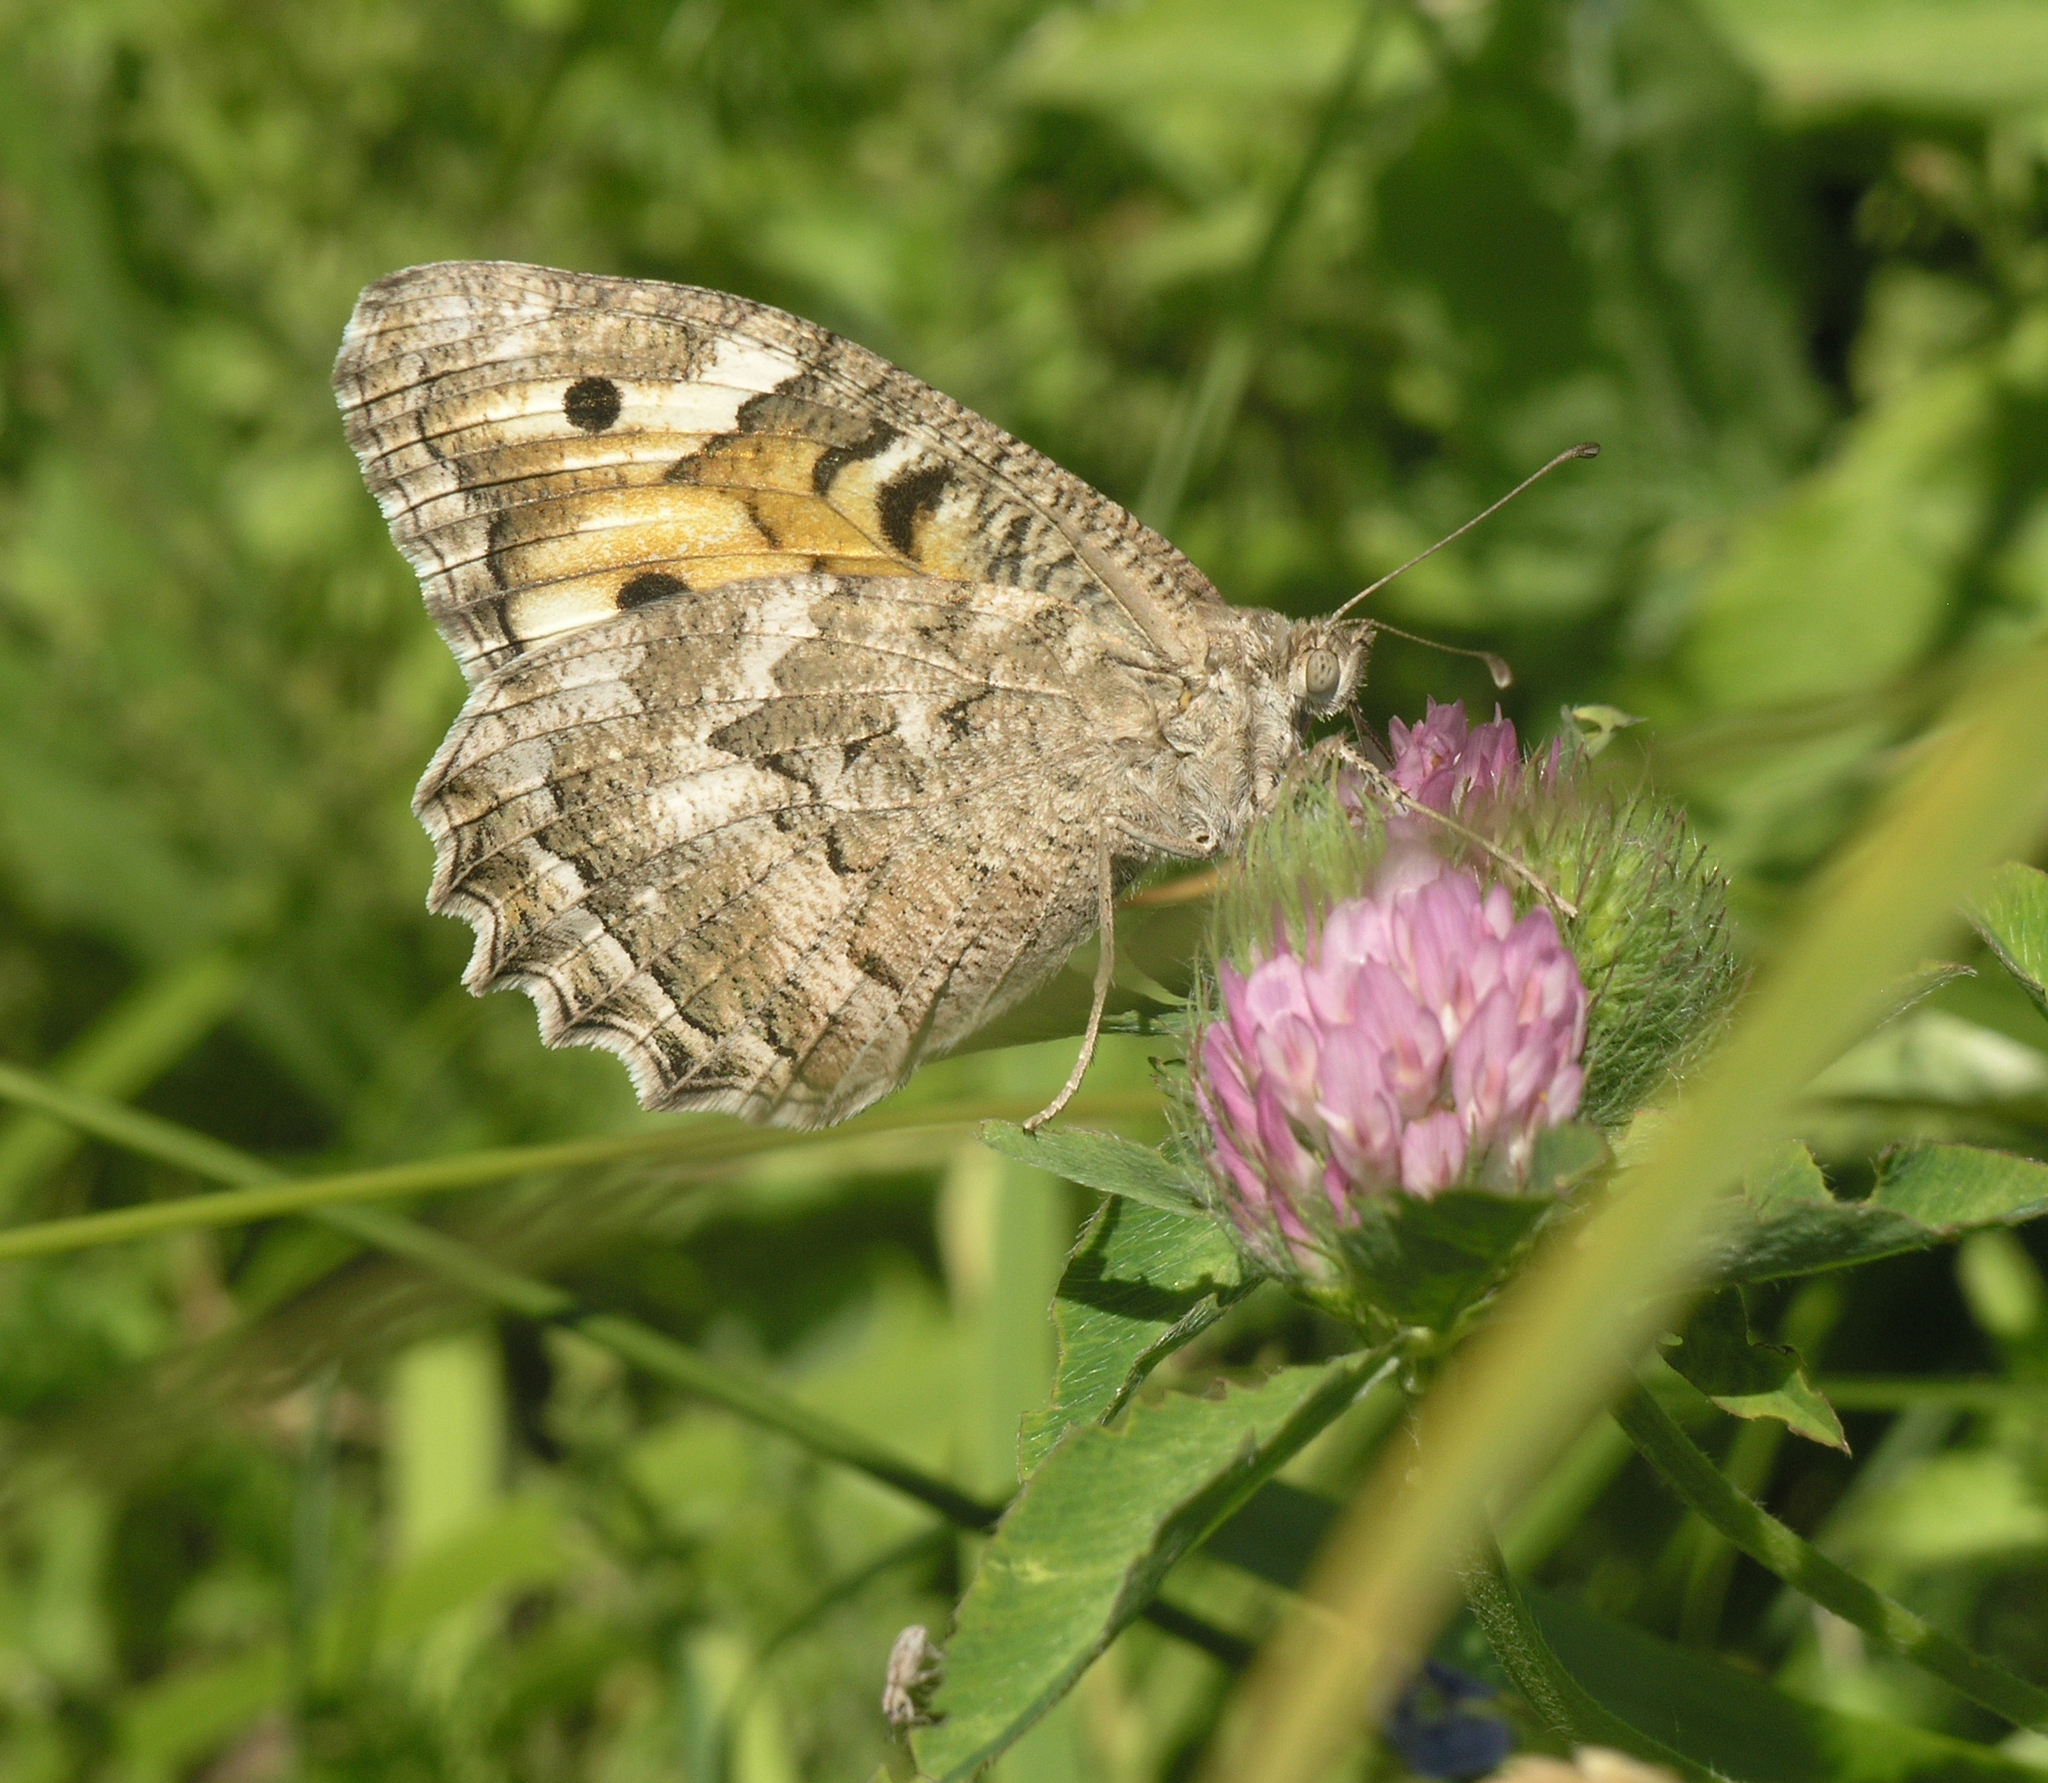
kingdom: Animalia
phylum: Arthropoda
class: Insecta
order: Lepidoptera
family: Nymphalidae
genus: Satyrus
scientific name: Satyrus Chazara enervata
